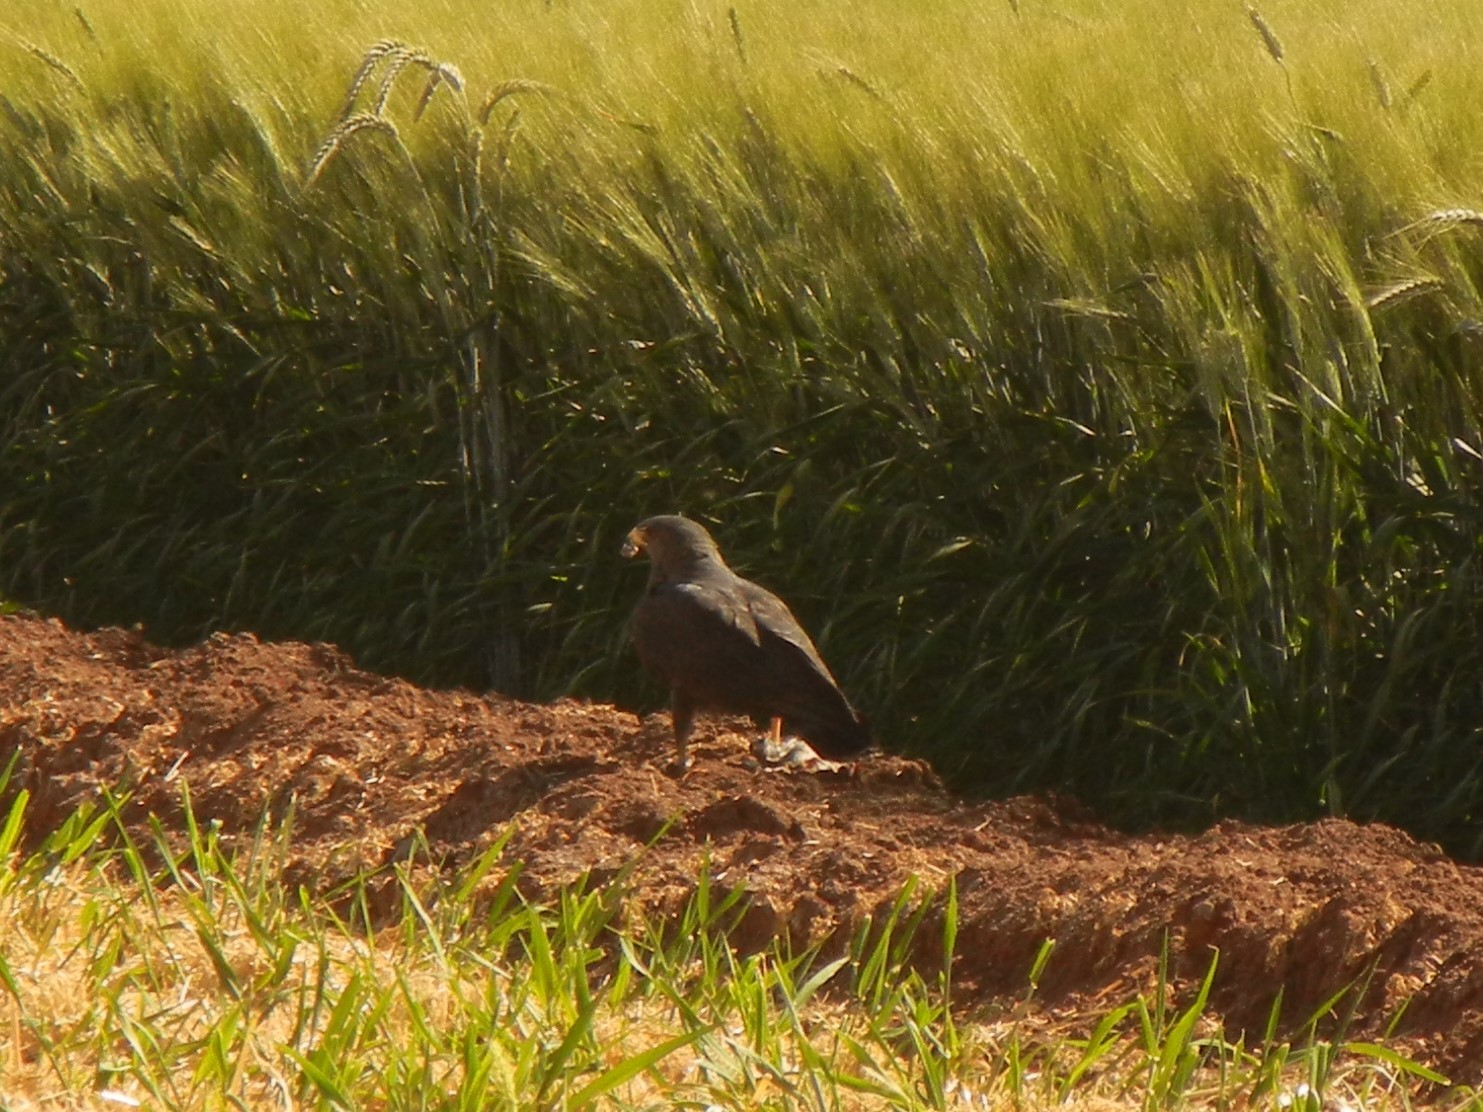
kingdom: Animalia
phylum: Chordata
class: Aves
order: Accipitriformes
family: Accipitridae
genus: Buteo
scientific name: Buteo albonotatus
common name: Zone-tailed hawk
